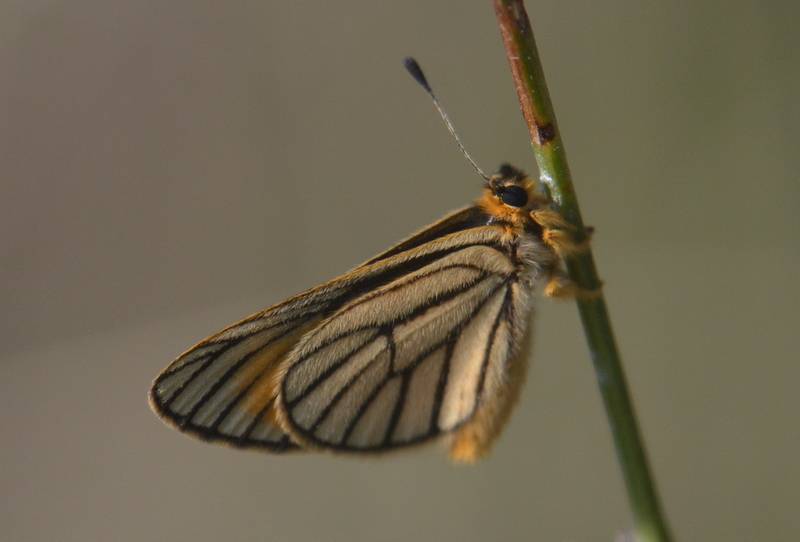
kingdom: Animalia
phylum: Arthropoda
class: Insecta
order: Lepidoptera
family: Lycaenidae
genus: Alaena
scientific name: Alaena amazoula
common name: Yellow zulu
